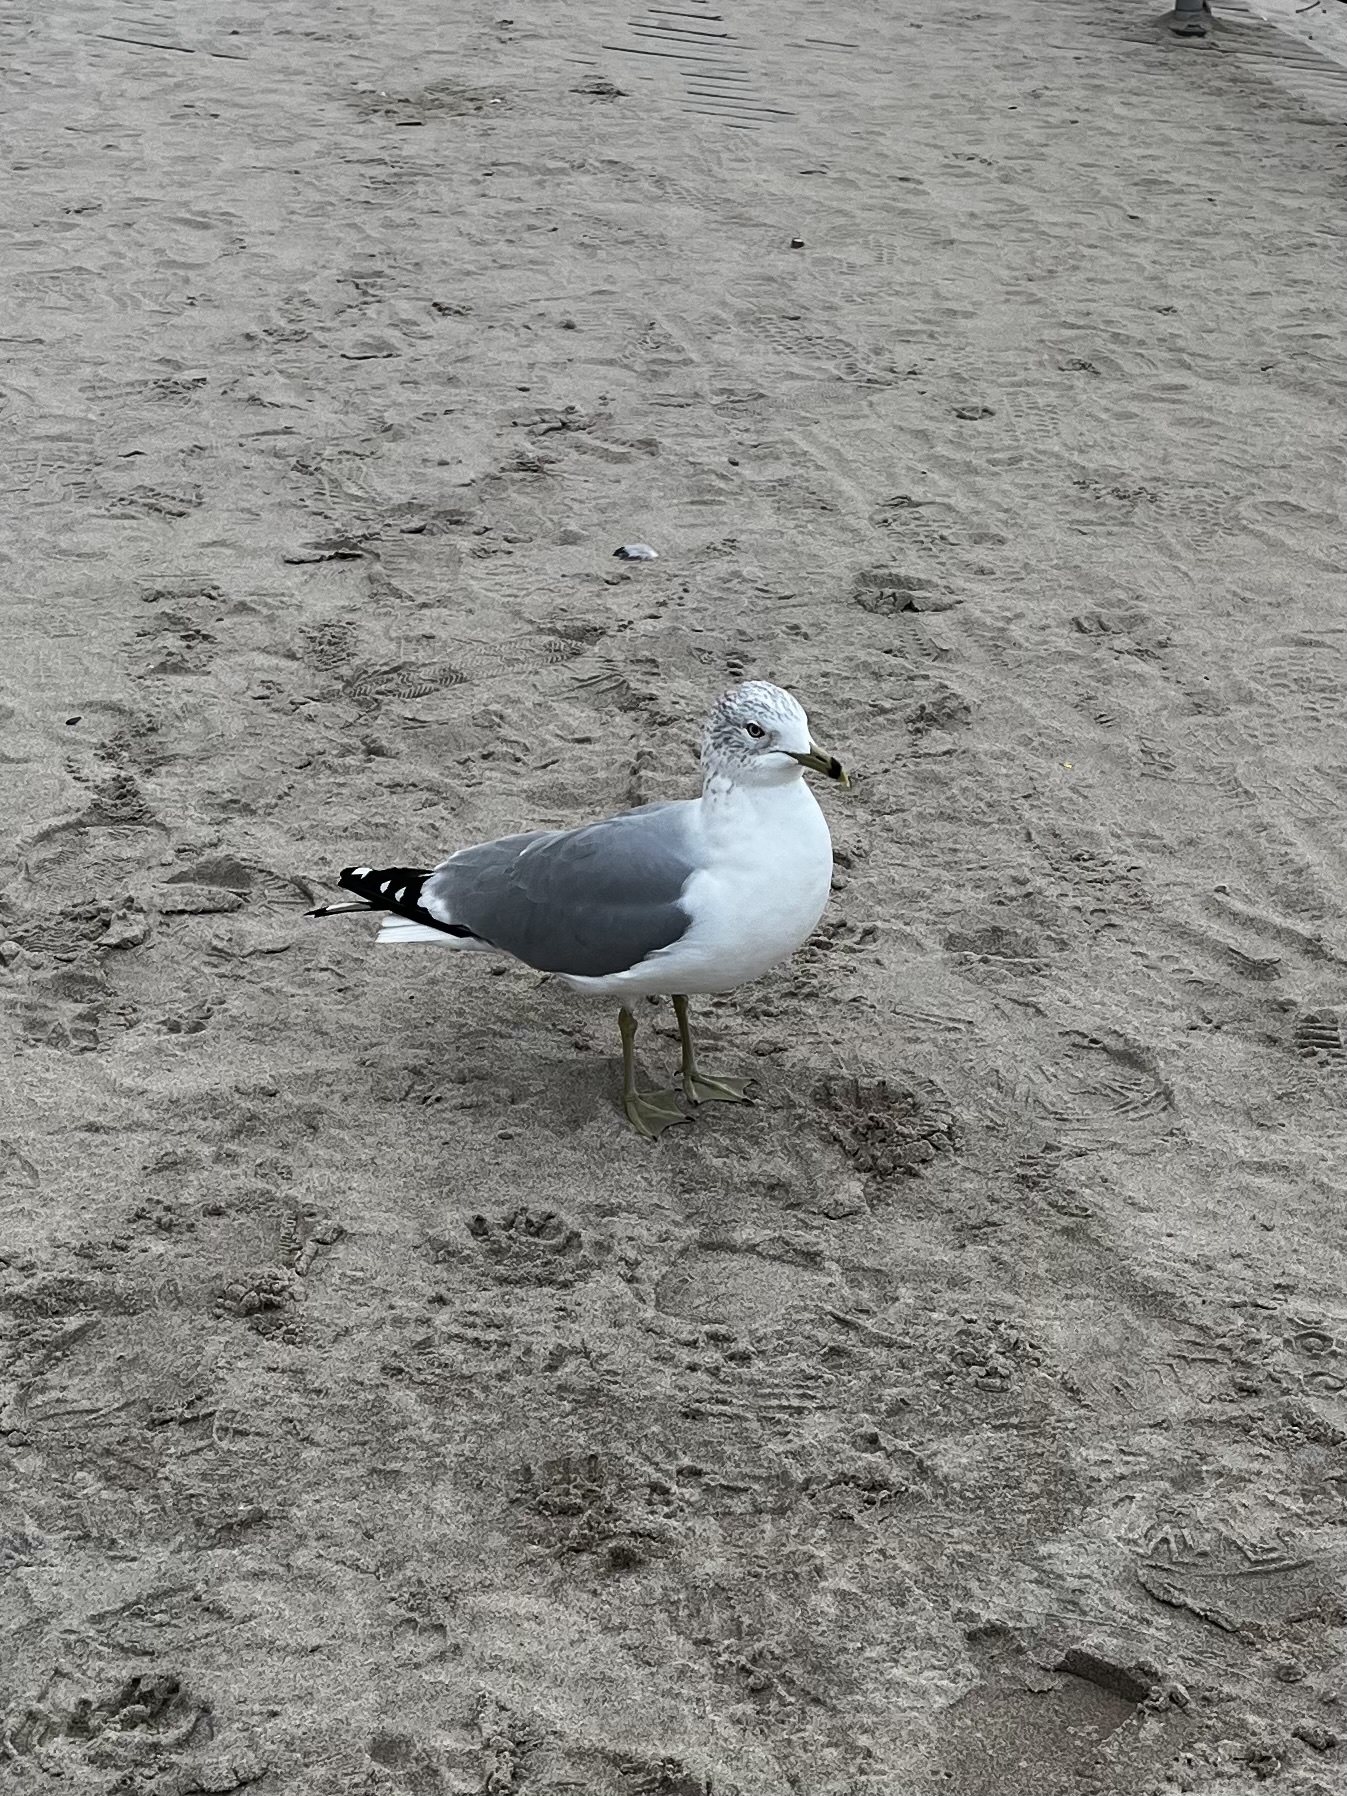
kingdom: Animalia
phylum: Chordata
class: Aves
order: Charadriiformes
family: Laridae
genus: Larus
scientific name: Larus delawarensis
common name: Ring-billed gull
